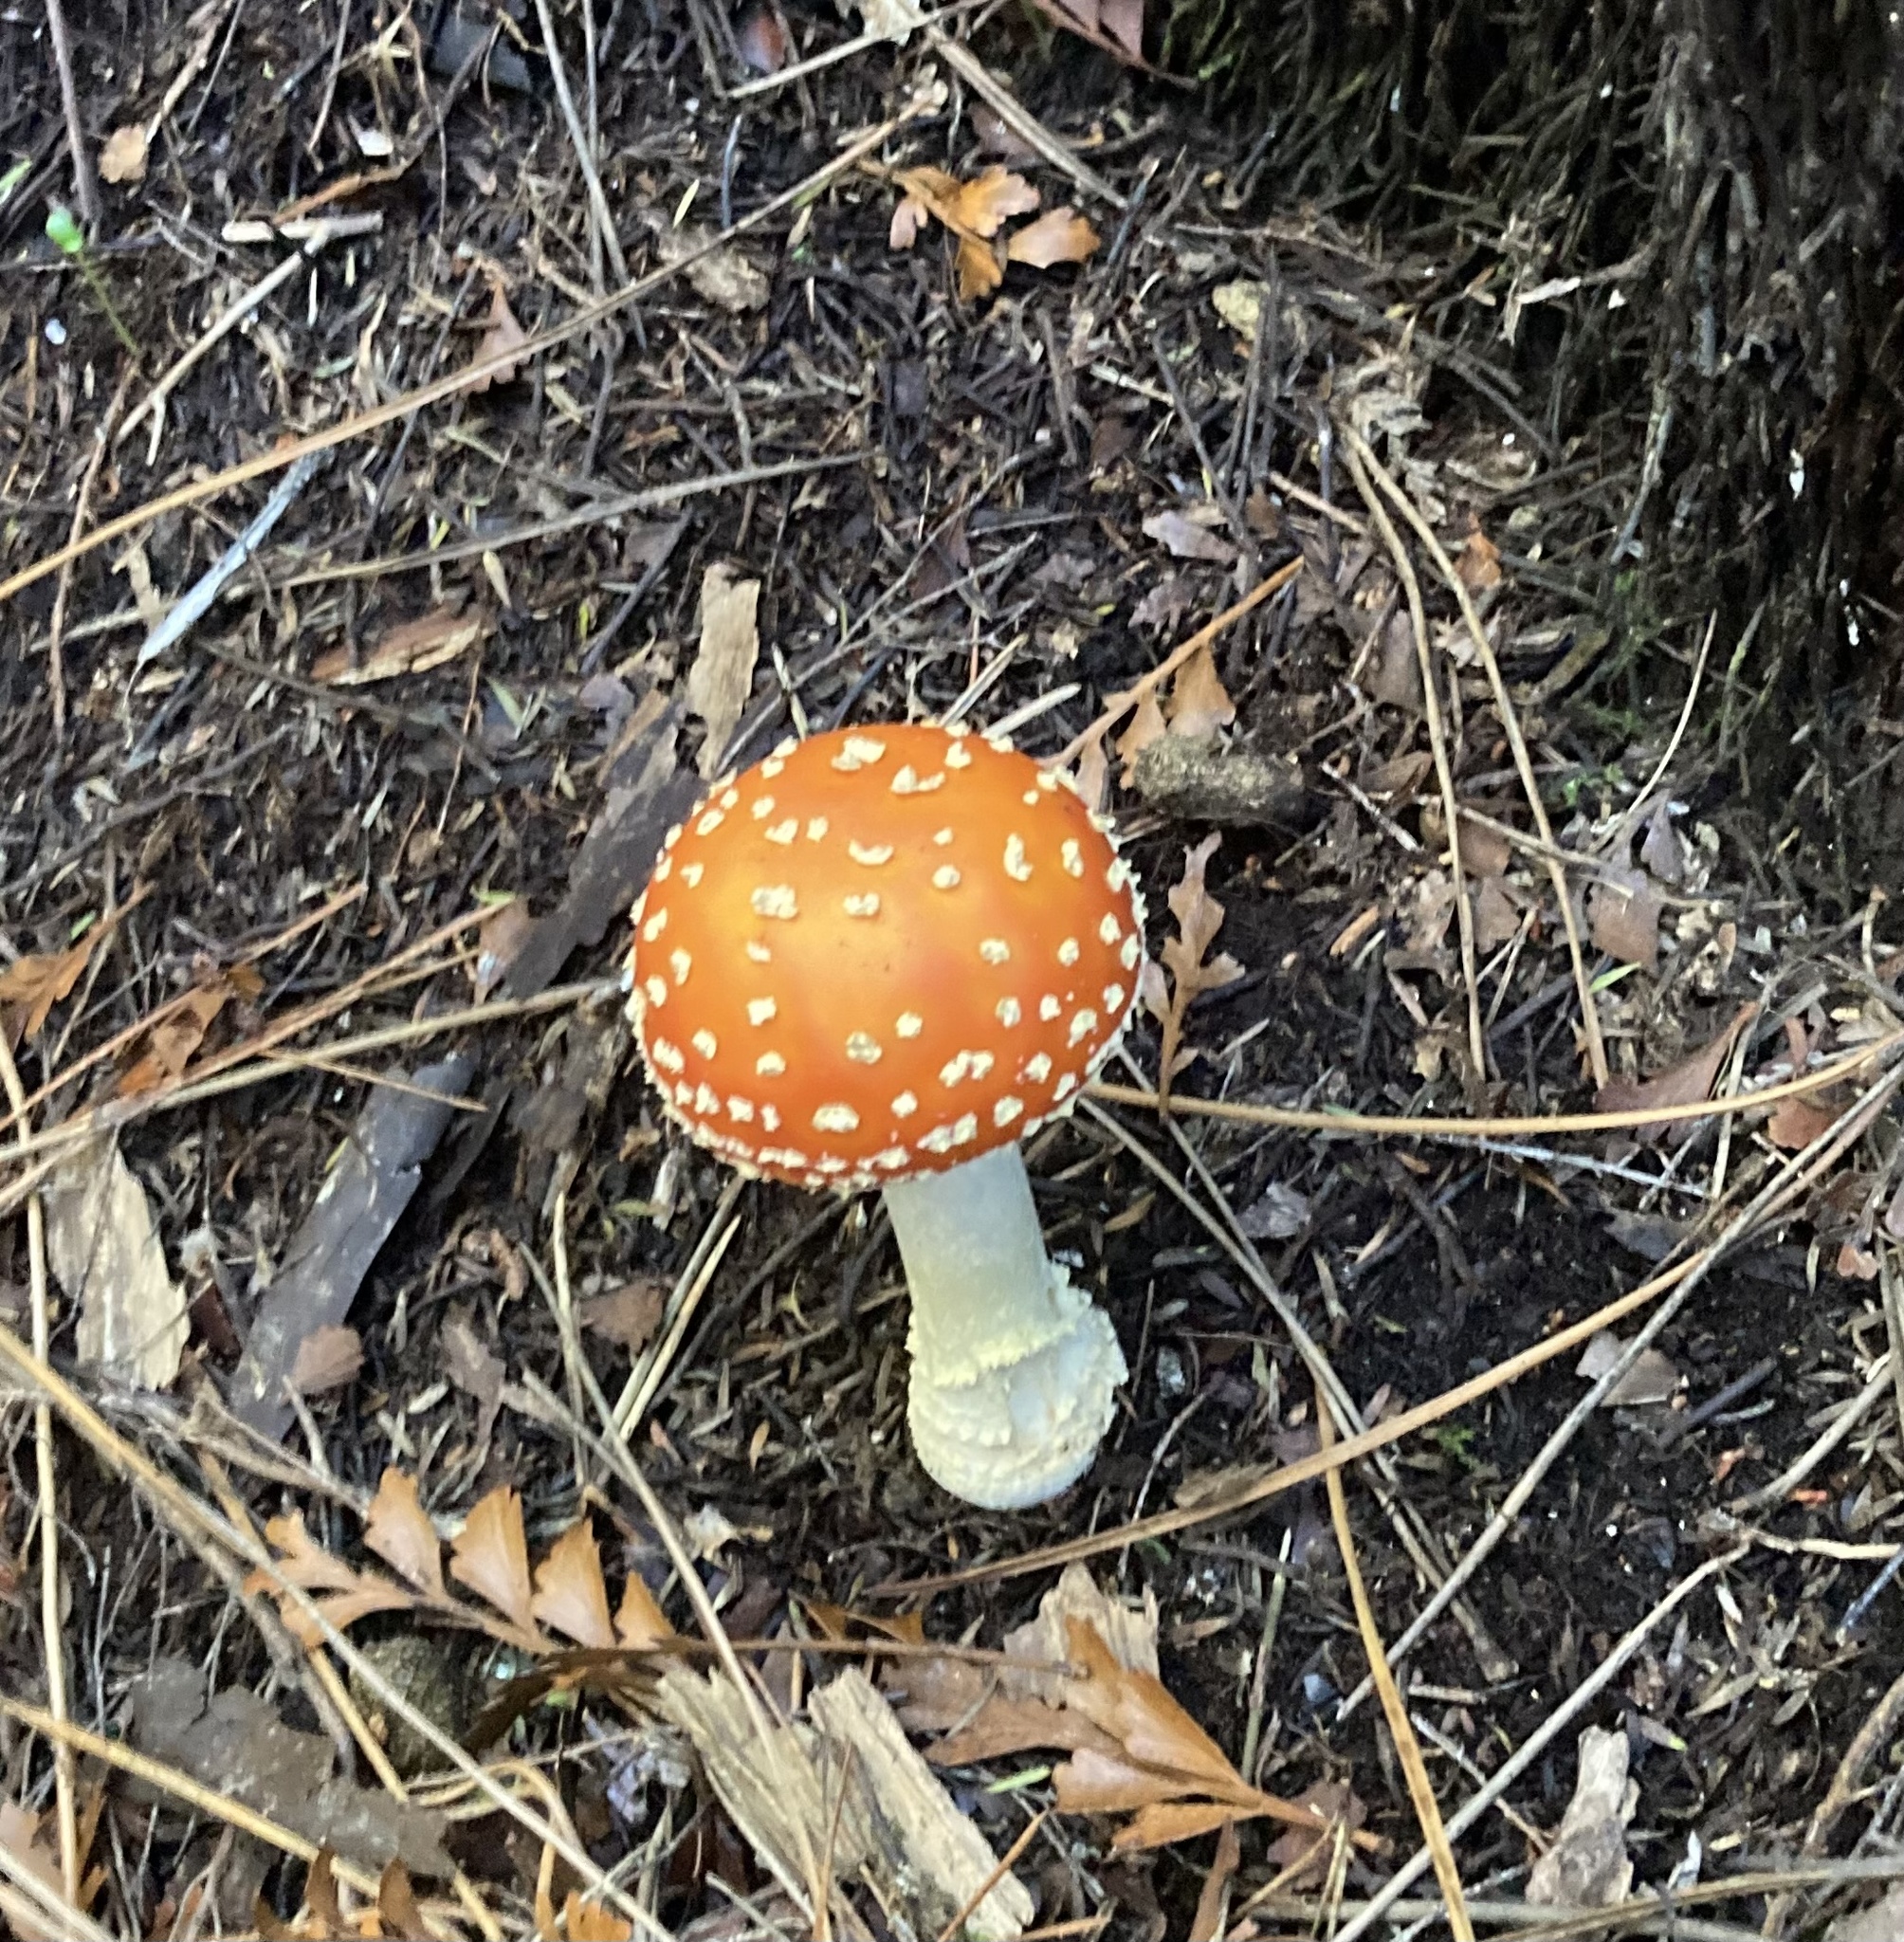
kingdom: Fungi
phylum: Basidiomycota
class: Agaricomycetes
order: Agaricales
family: Amanitaceae
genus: Amanita
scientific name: Amanita muscaria
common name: Fly agaric
